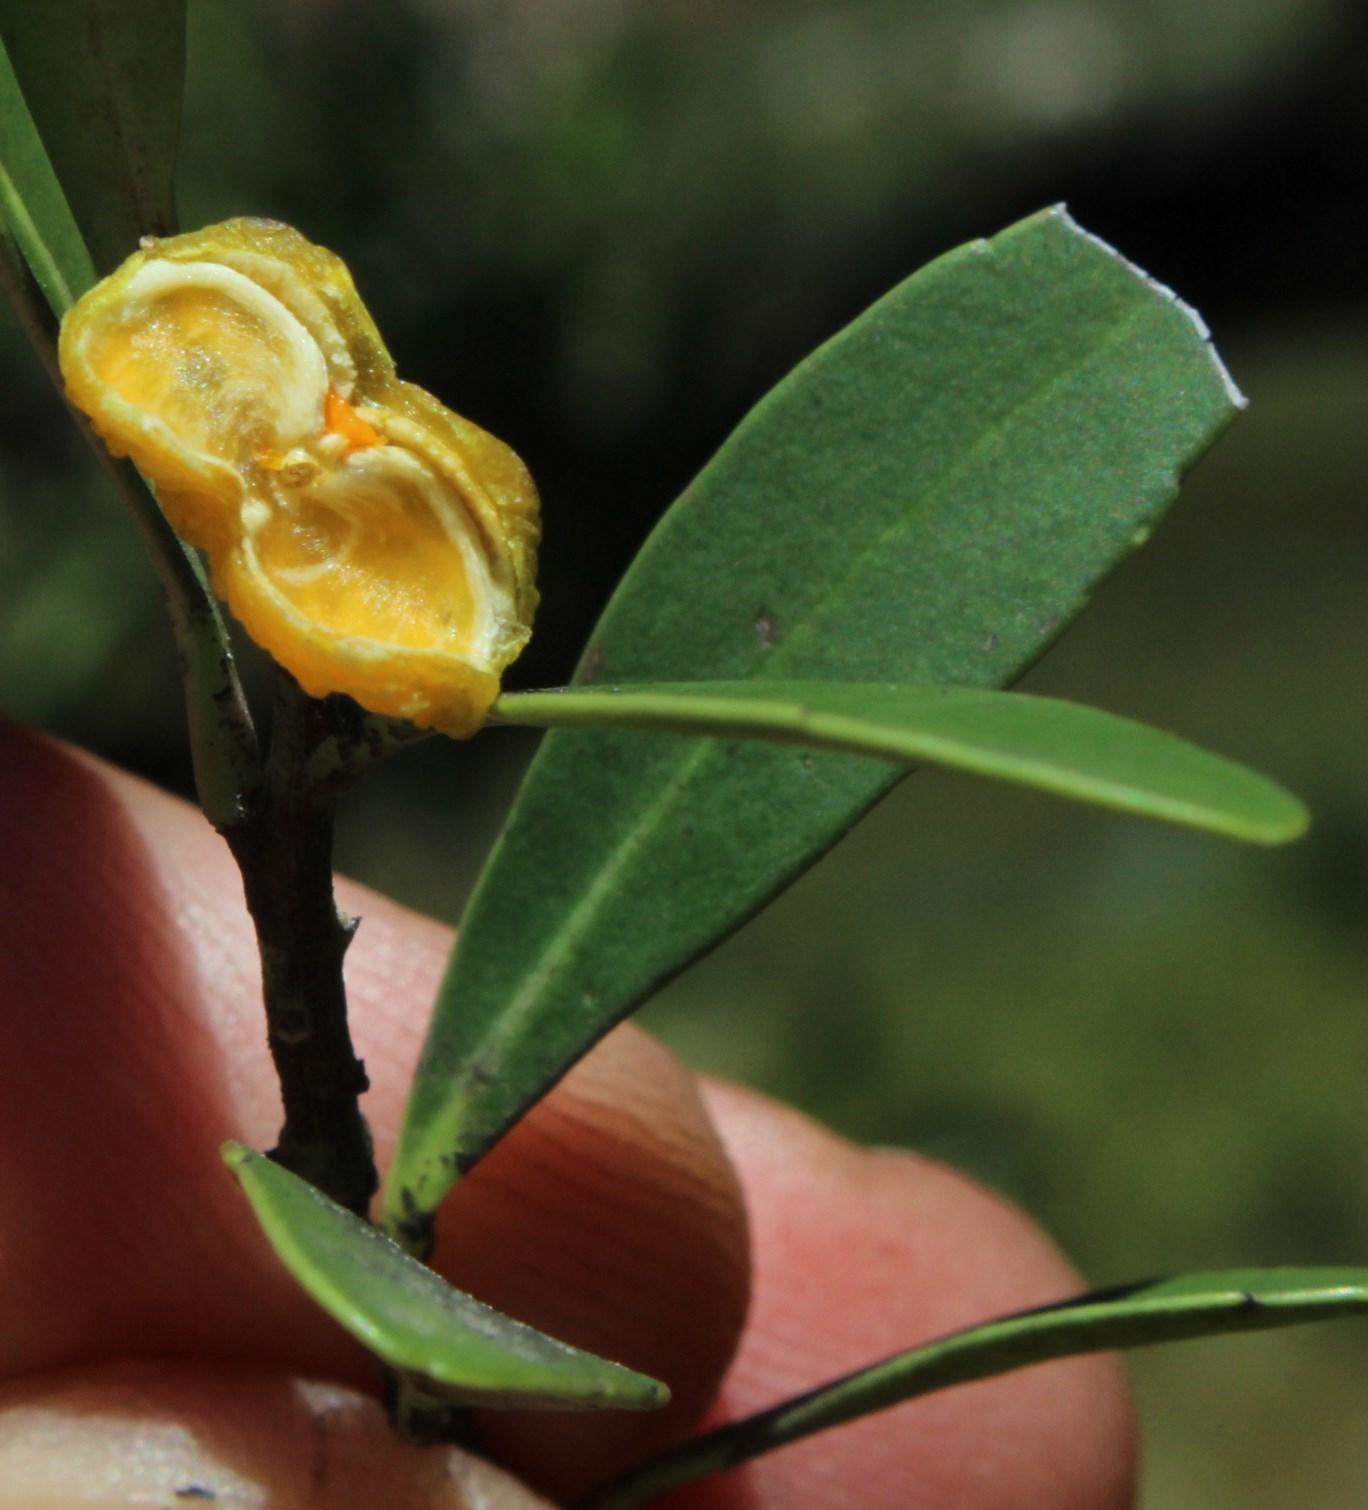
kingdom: Plantae
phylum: Tracheophyta
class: Magnoliopsida
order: Celastrales
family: Celastraceae
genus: Gymnosporia
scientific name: Gymnosporia laurina
